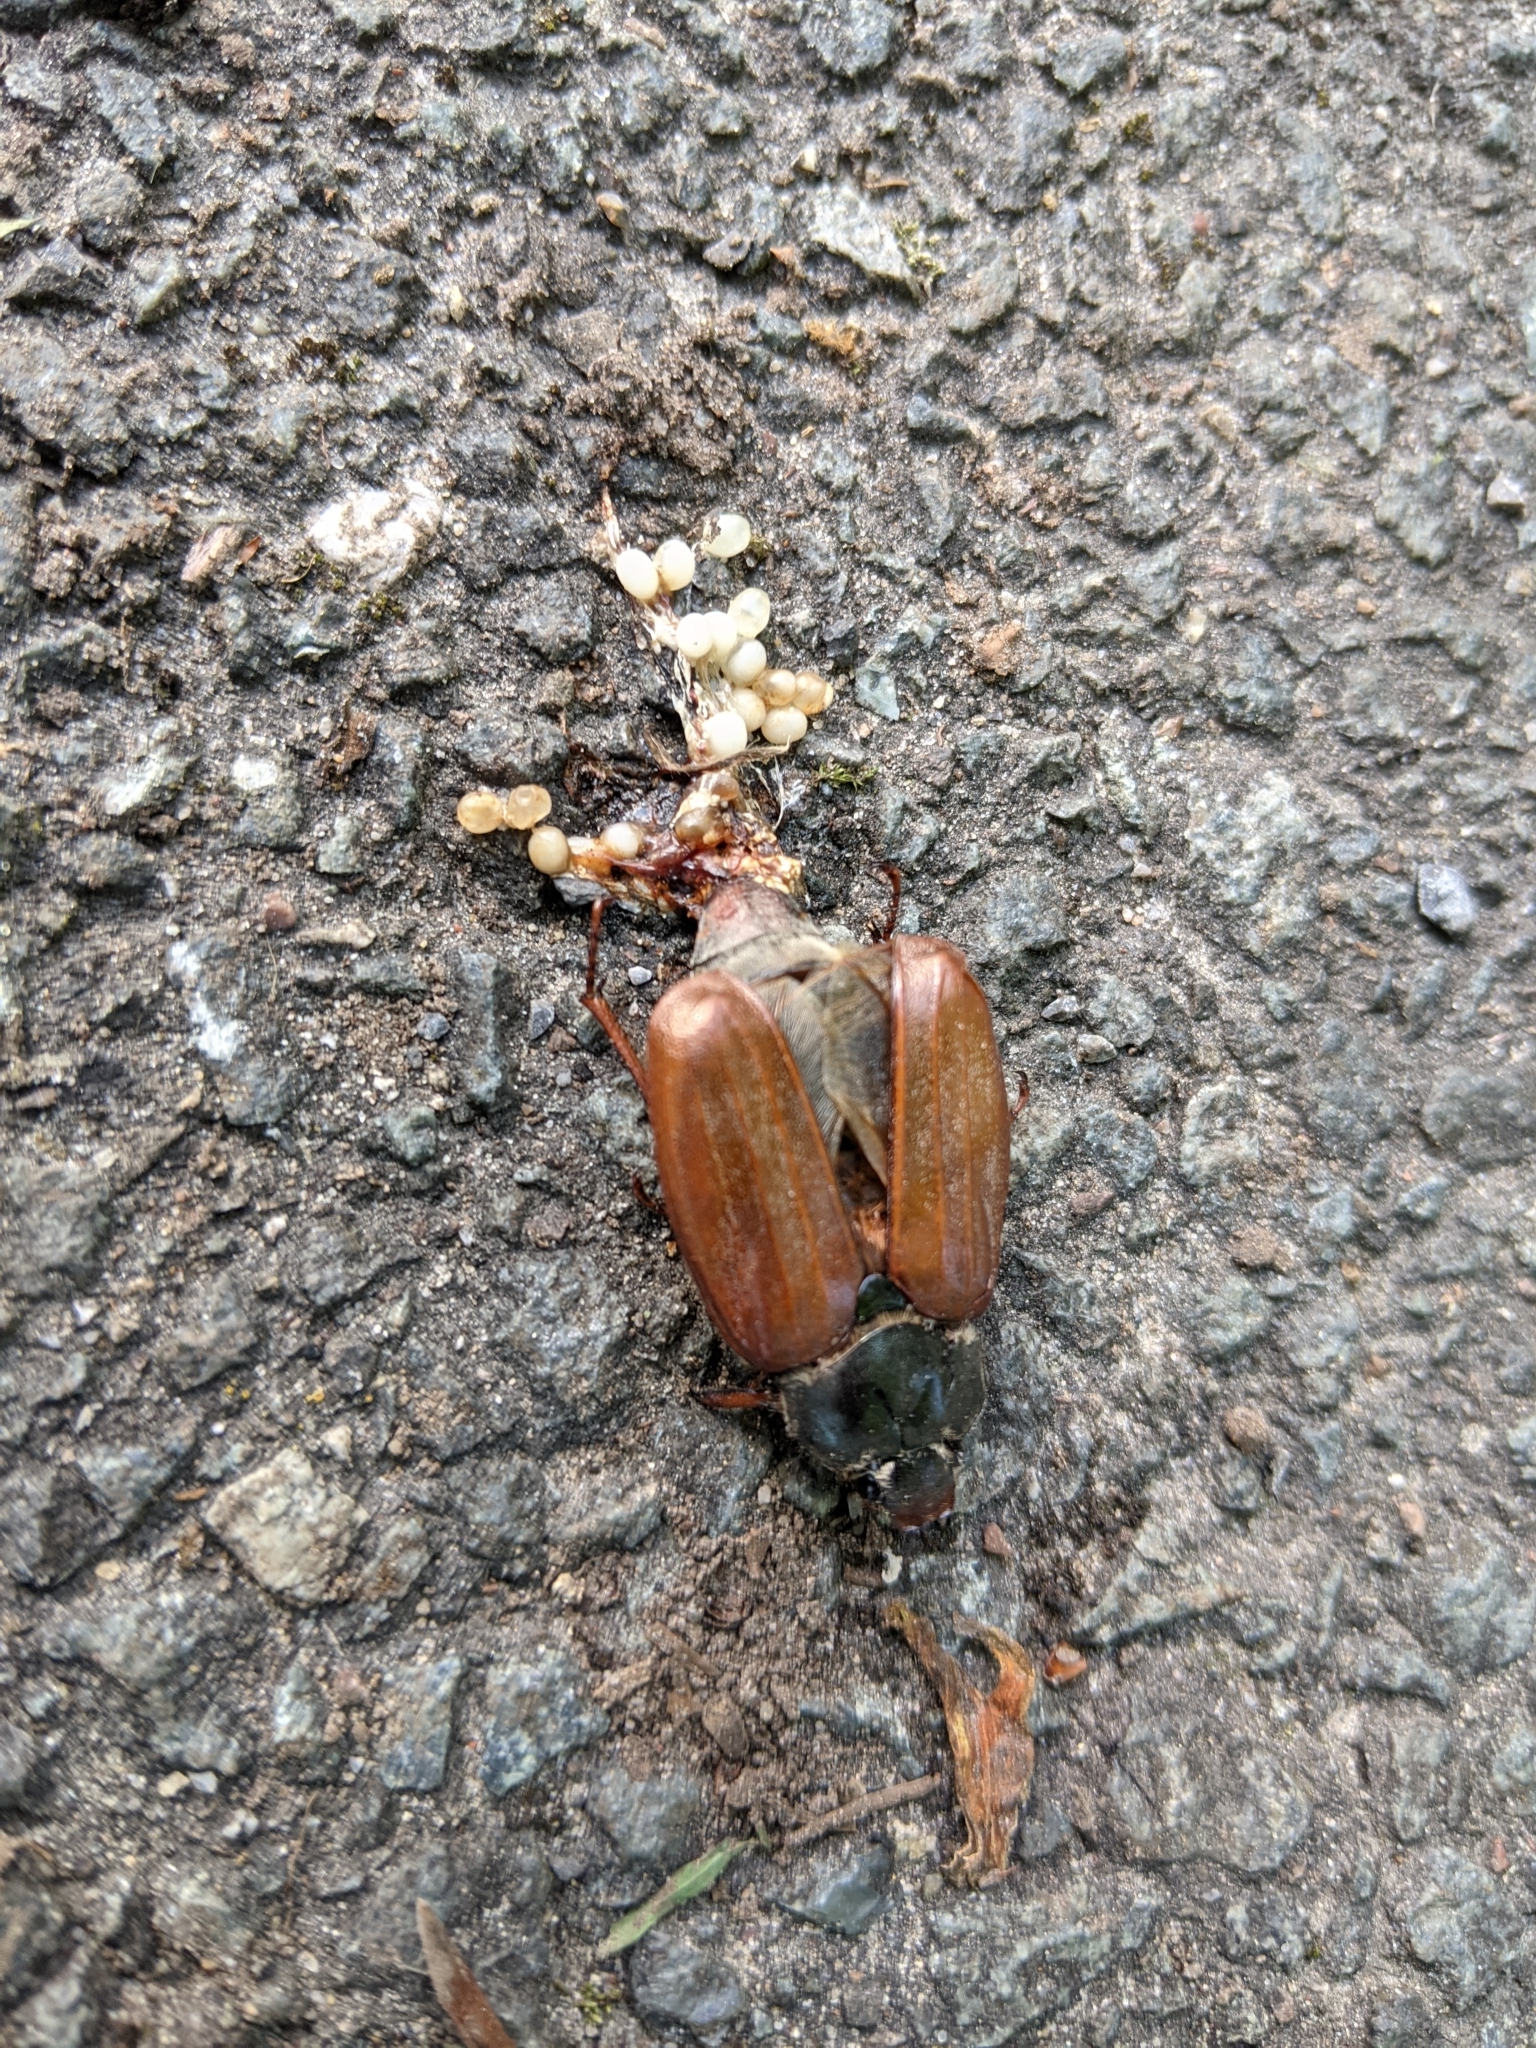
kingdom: Animalia
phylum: Arthropoda
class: Insecta
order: Coleoptera
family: Scarabaeidae
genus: Melolontha
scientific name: Melolontha melolontha
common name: Cockchafer maybeetle
